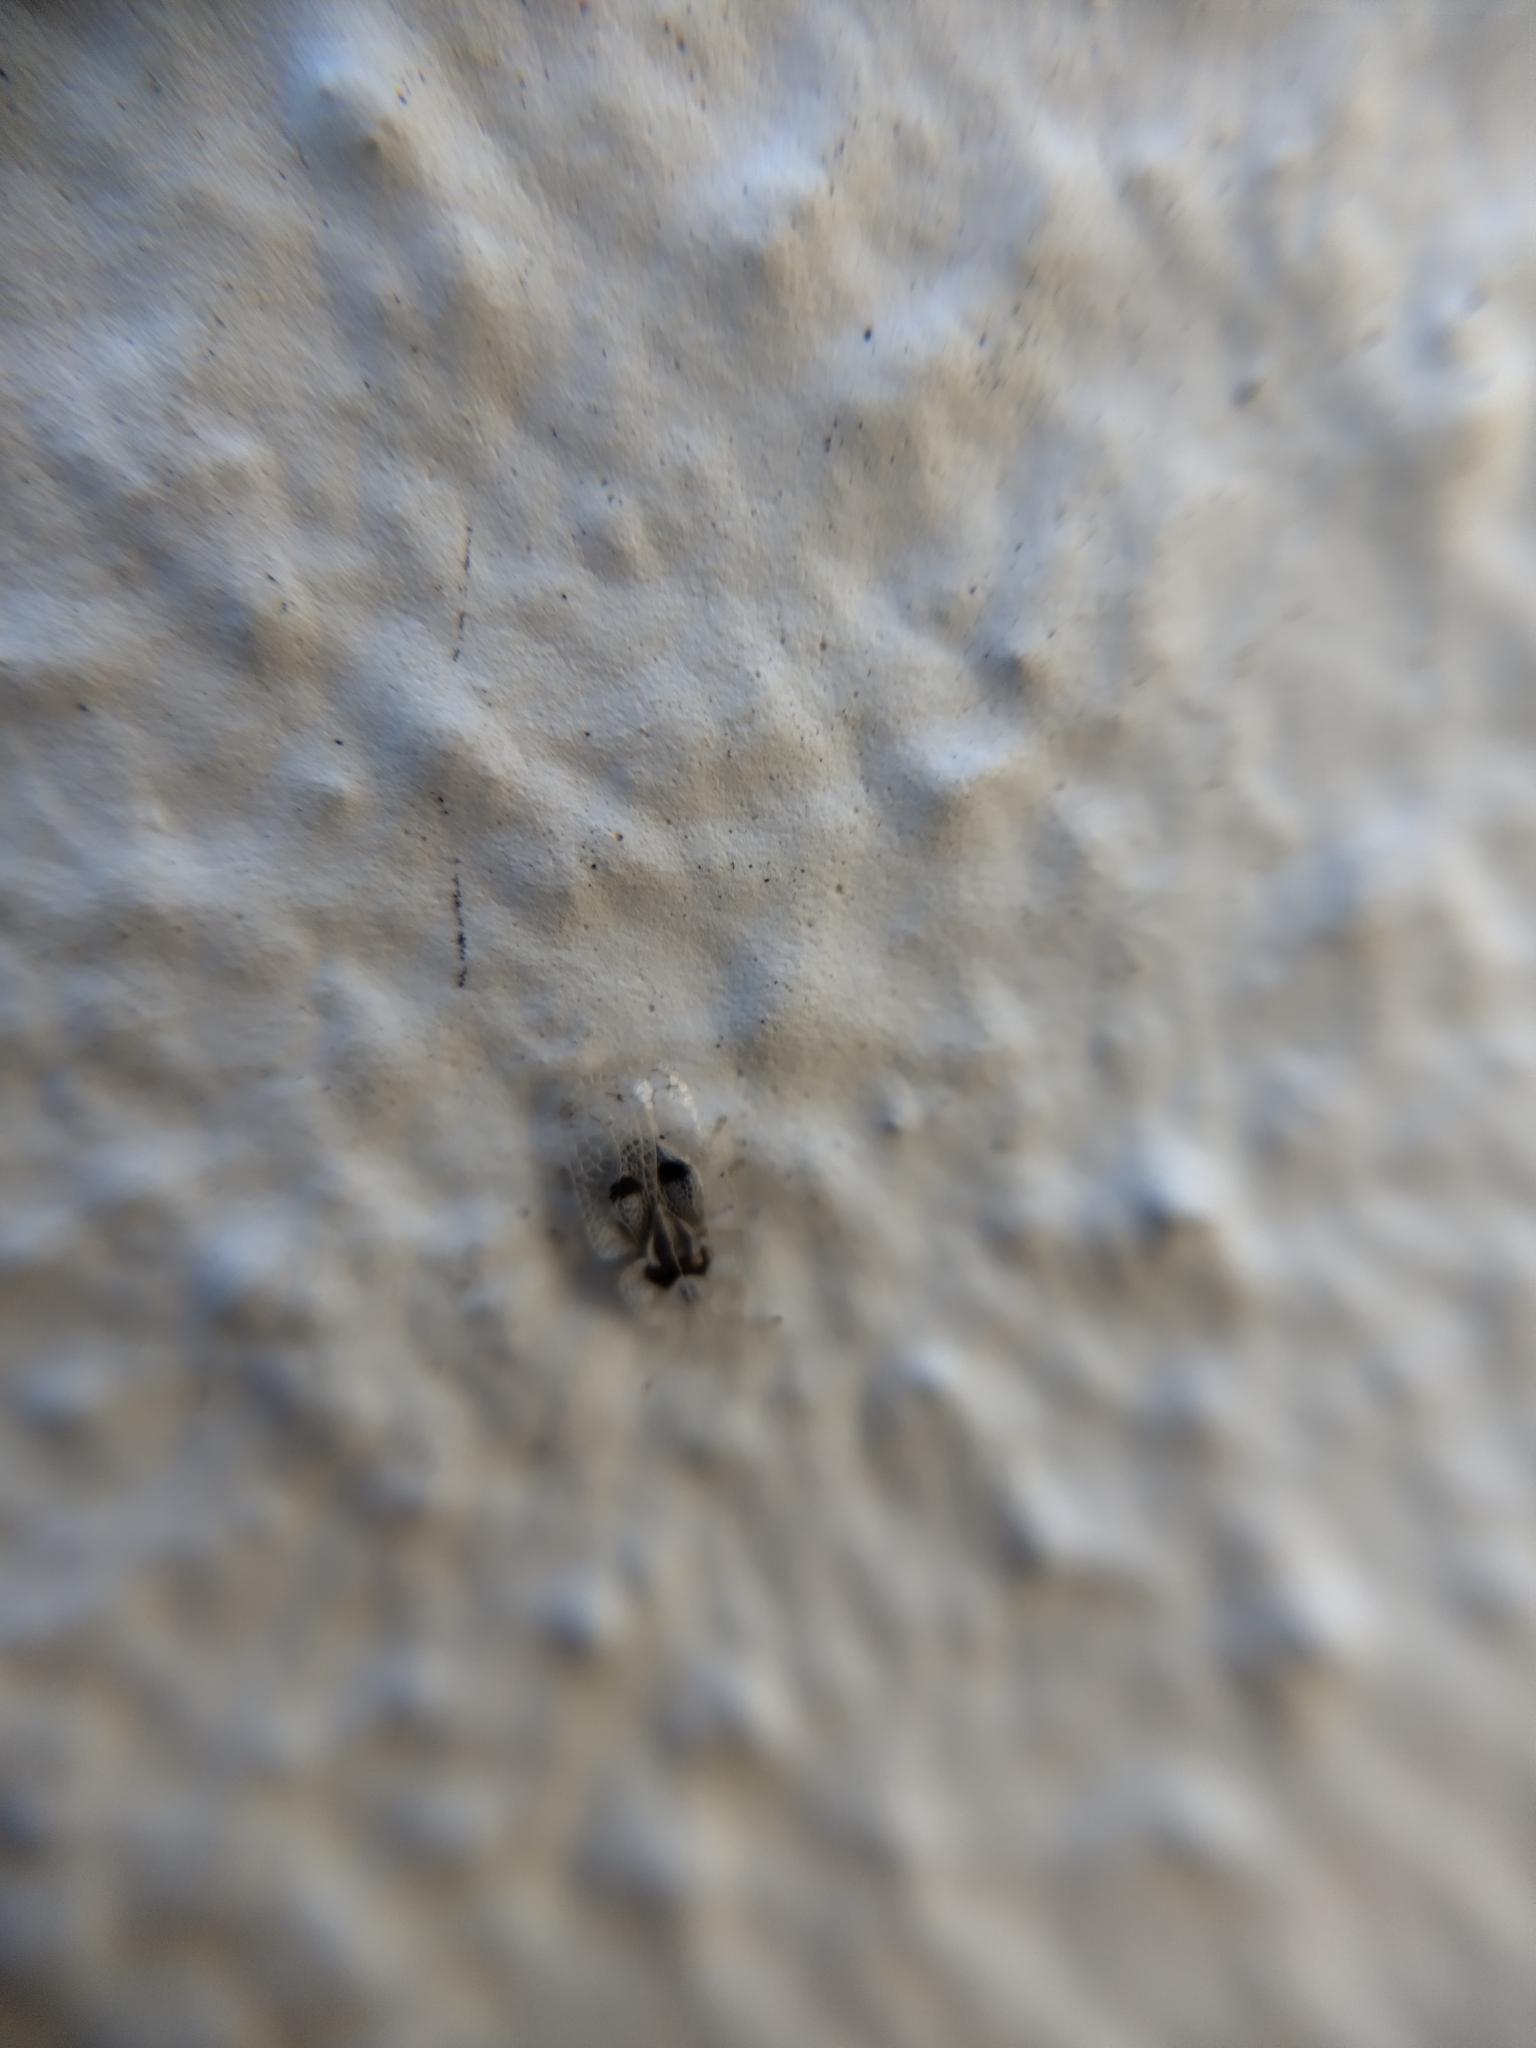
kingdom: Animalia
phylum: Arthropoda
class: Insecta
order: Hemiptera
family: Tingidae
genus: Corythucha
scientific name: Corythucha ciliata
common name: Sycamore lace bug
